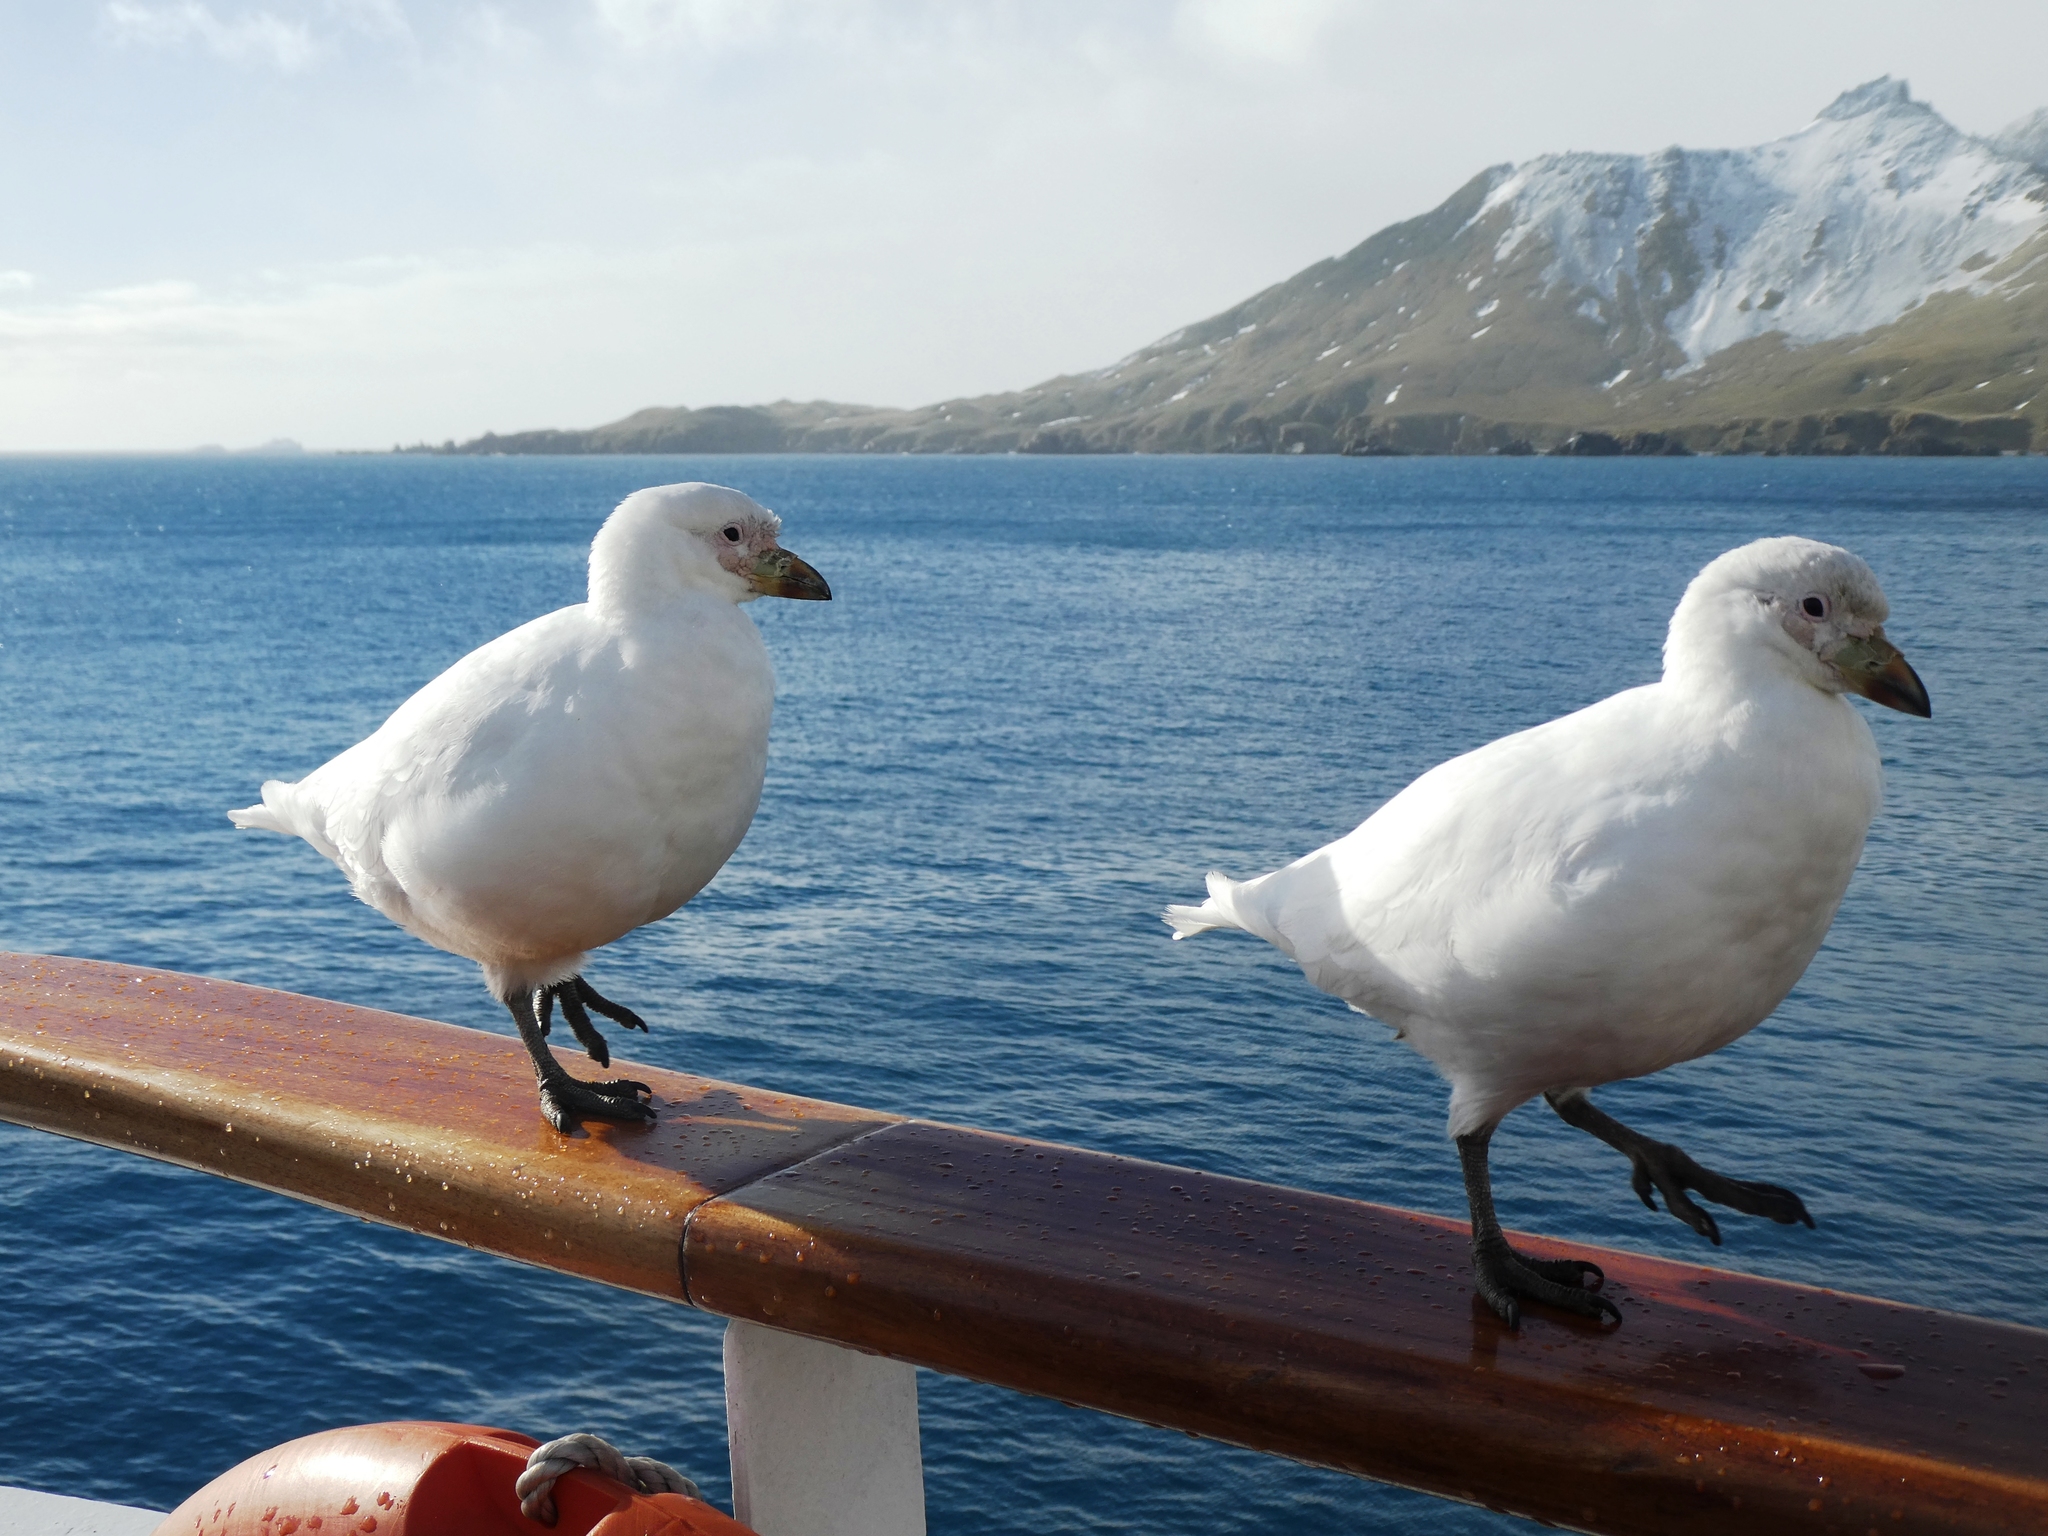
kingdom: Animalia
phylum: Chordata
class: Aves
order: Charadriiformes
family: Chionidae
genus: Chionis
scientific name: Chionis albus
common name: Snowy sheathbill
